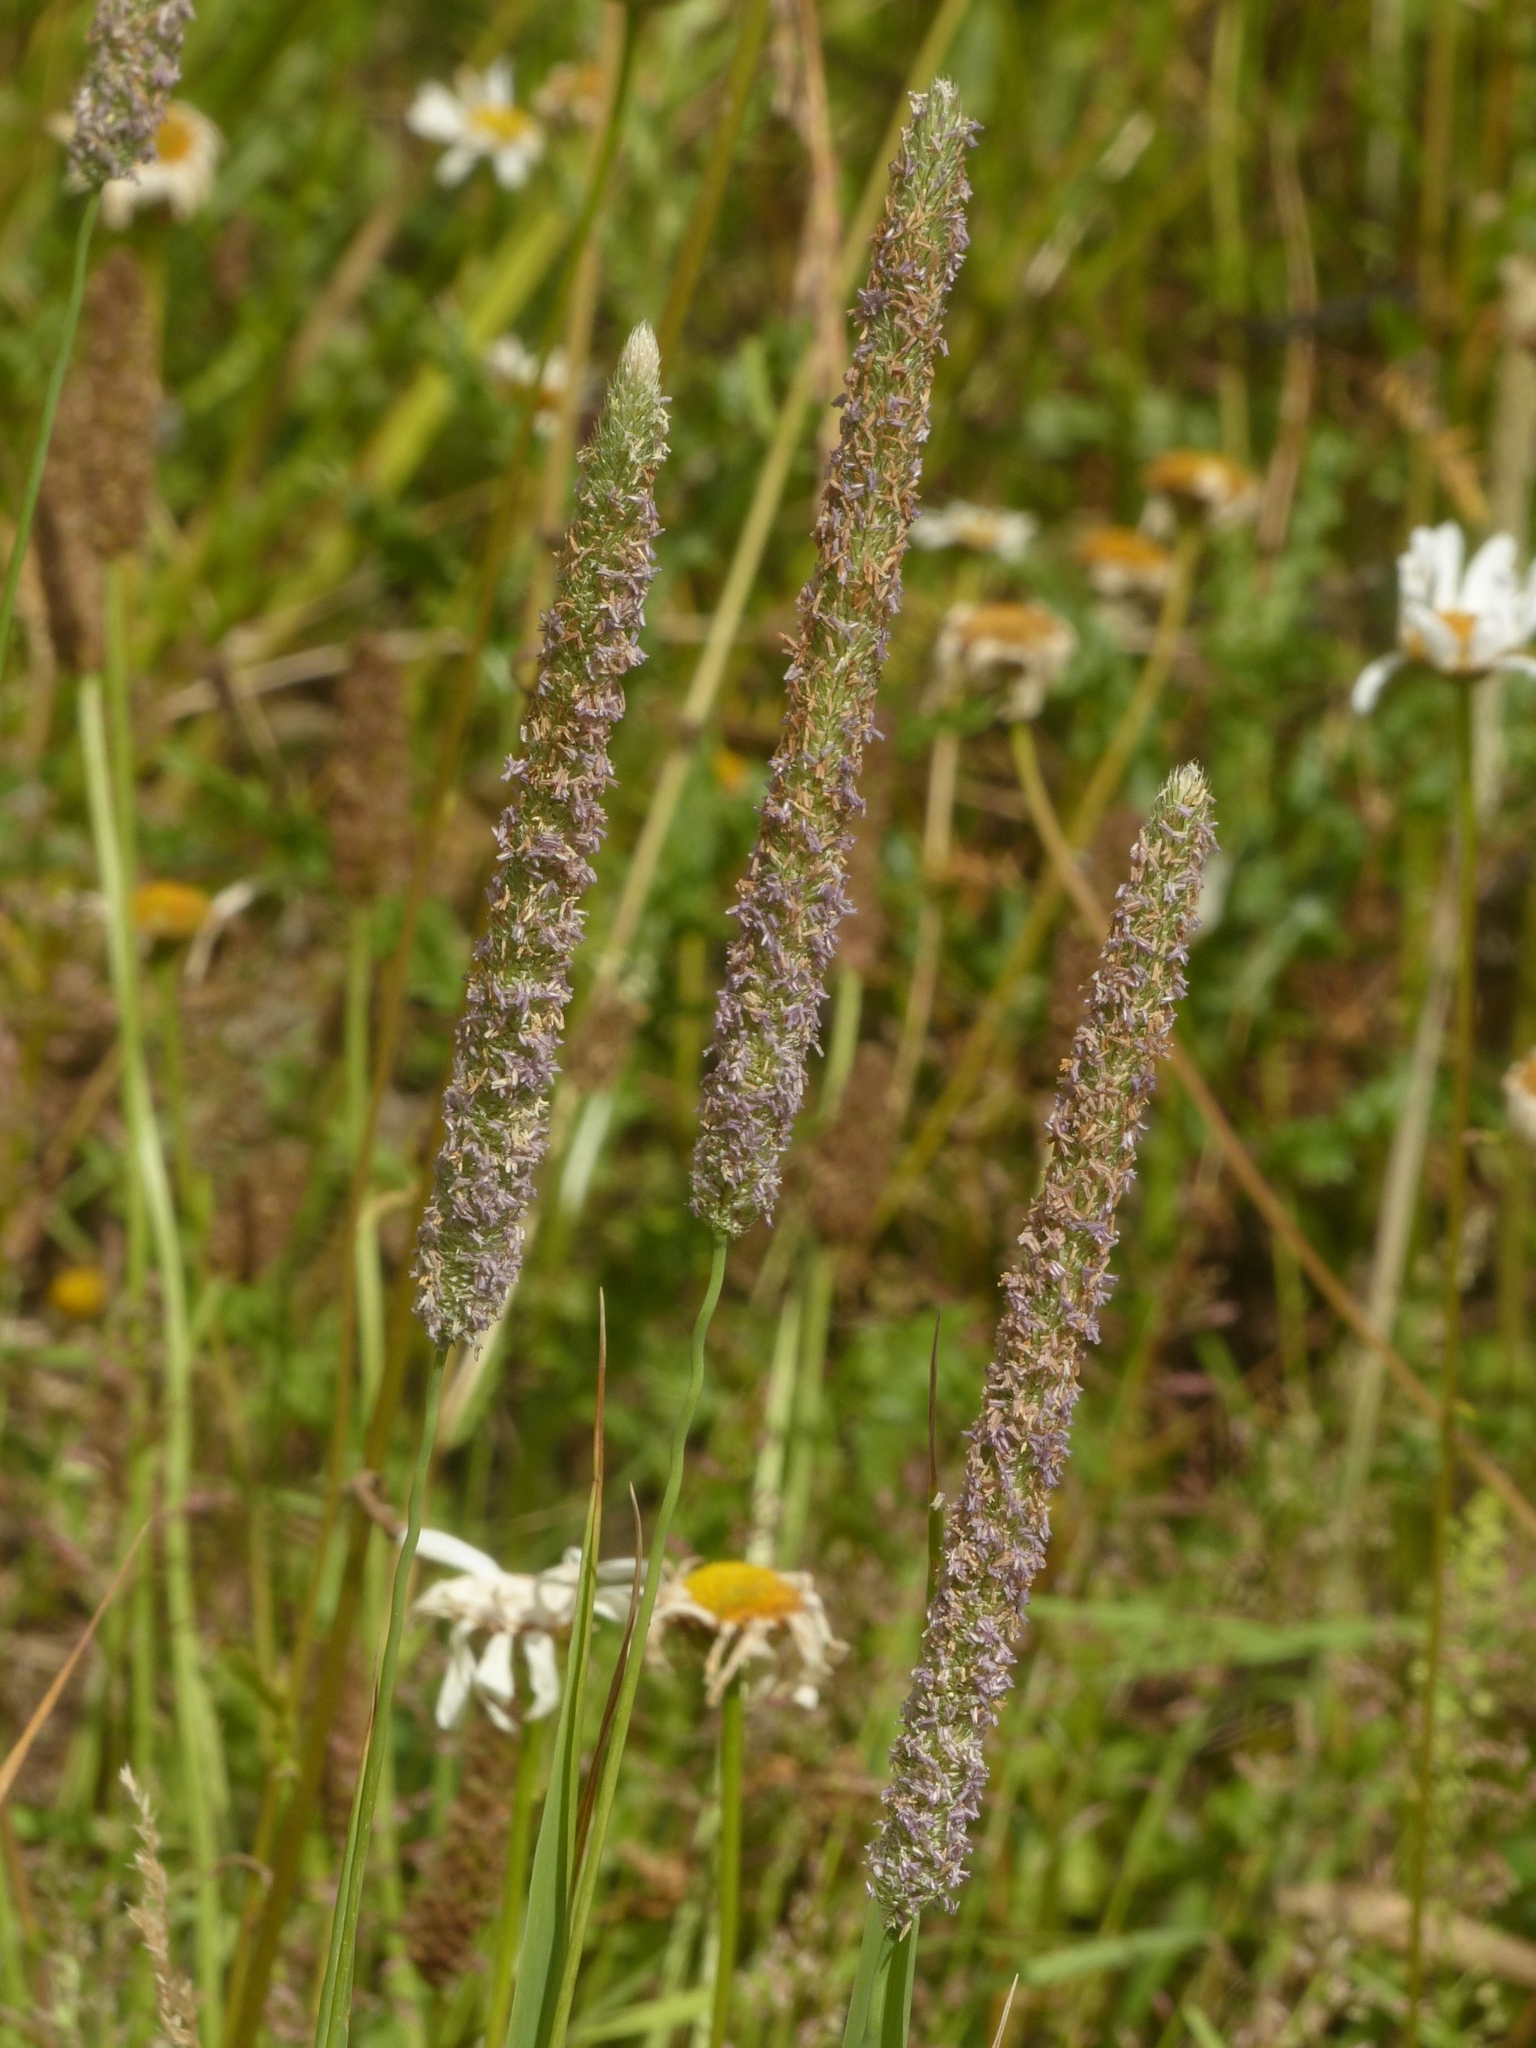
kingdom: Plantae
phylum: Tracheophyta
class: Liliopsida
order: Poales
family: Poaceae
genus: Phleum
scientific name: Phleum pratense
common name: Timothy grass
